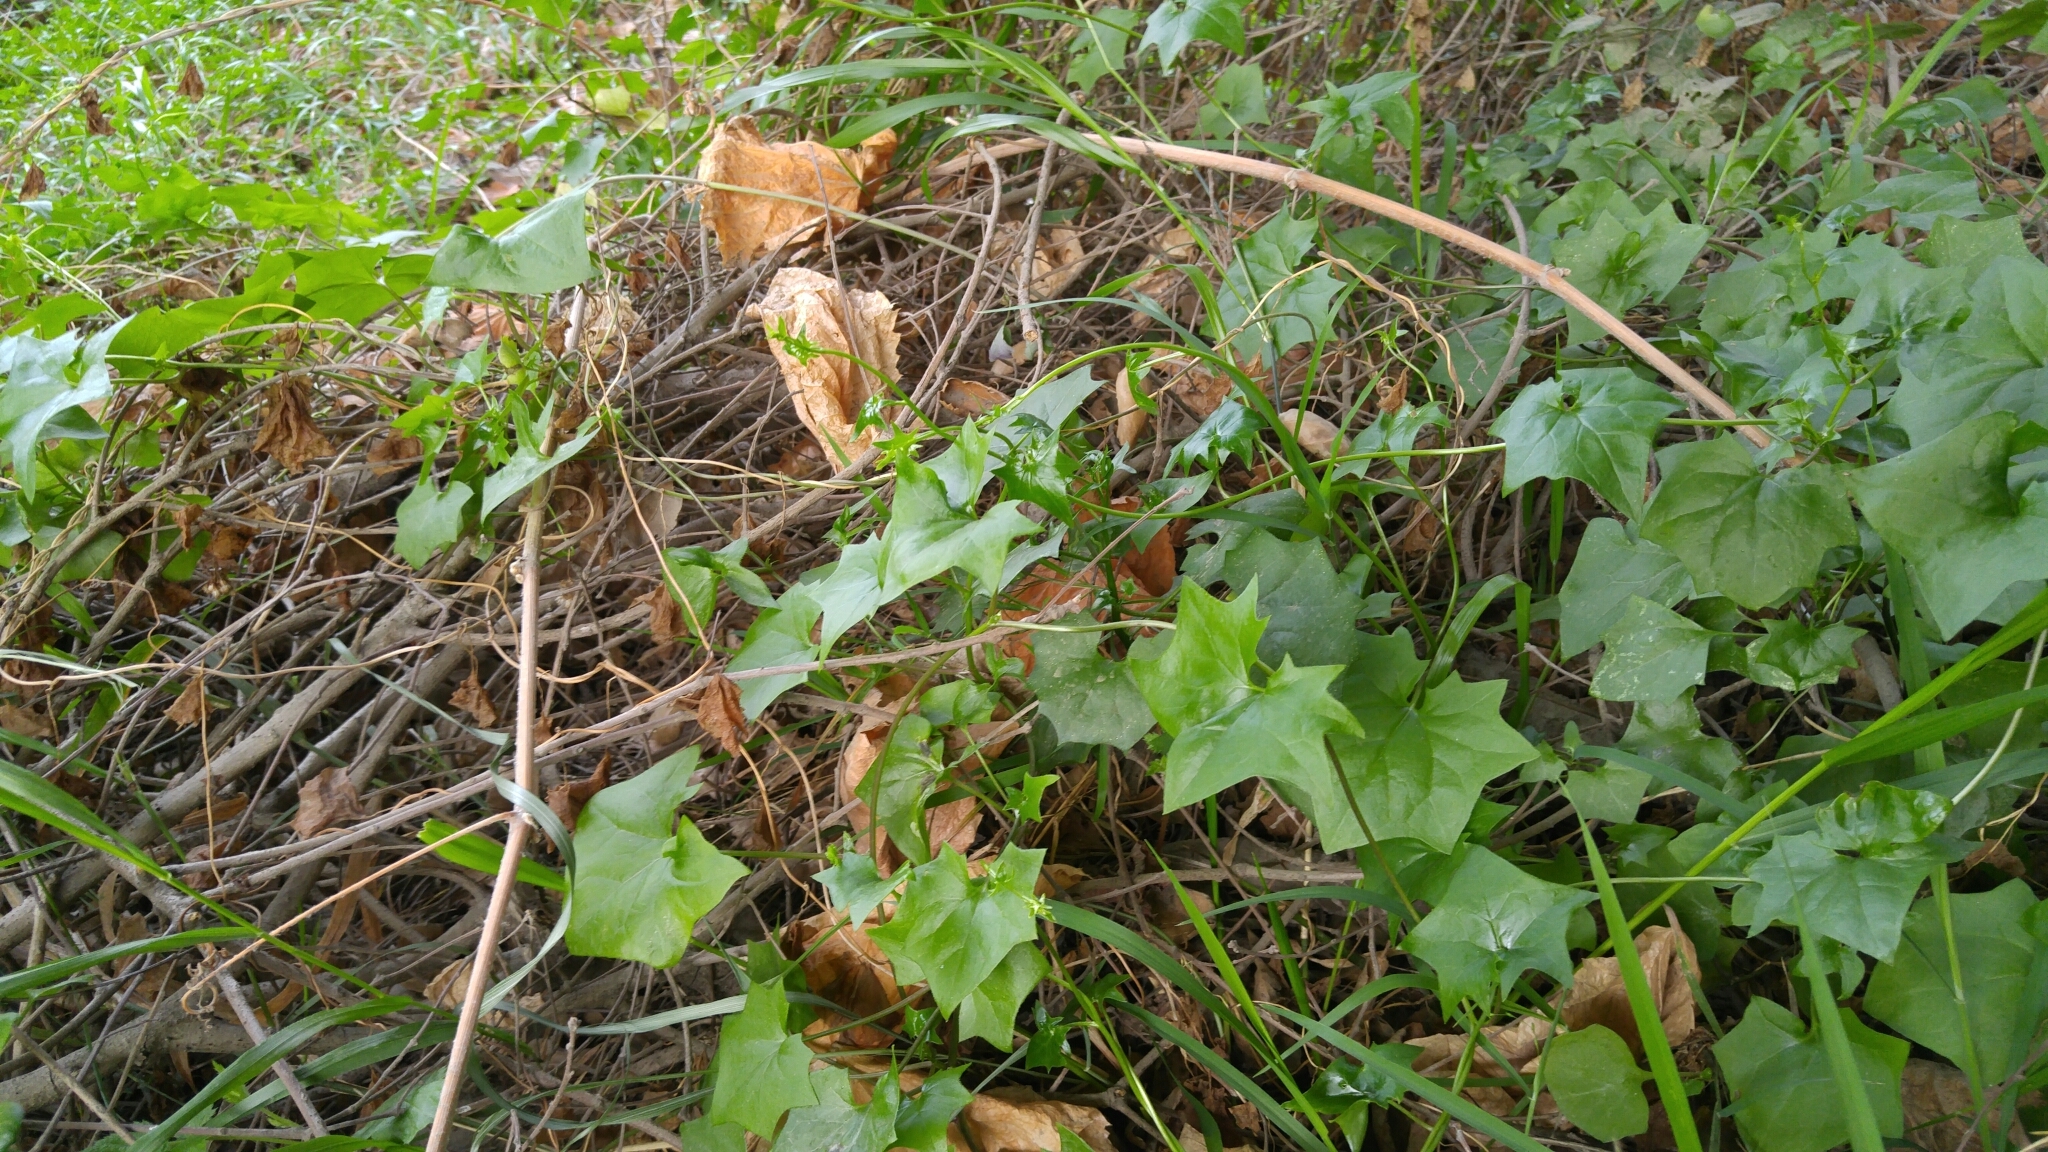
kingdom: Plantae
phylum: Tracheophyta
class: Magnoliopsida
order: Asterales
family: Asteraceae
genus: Delairea
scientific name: Delairea odorata
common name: Cape-ivy
